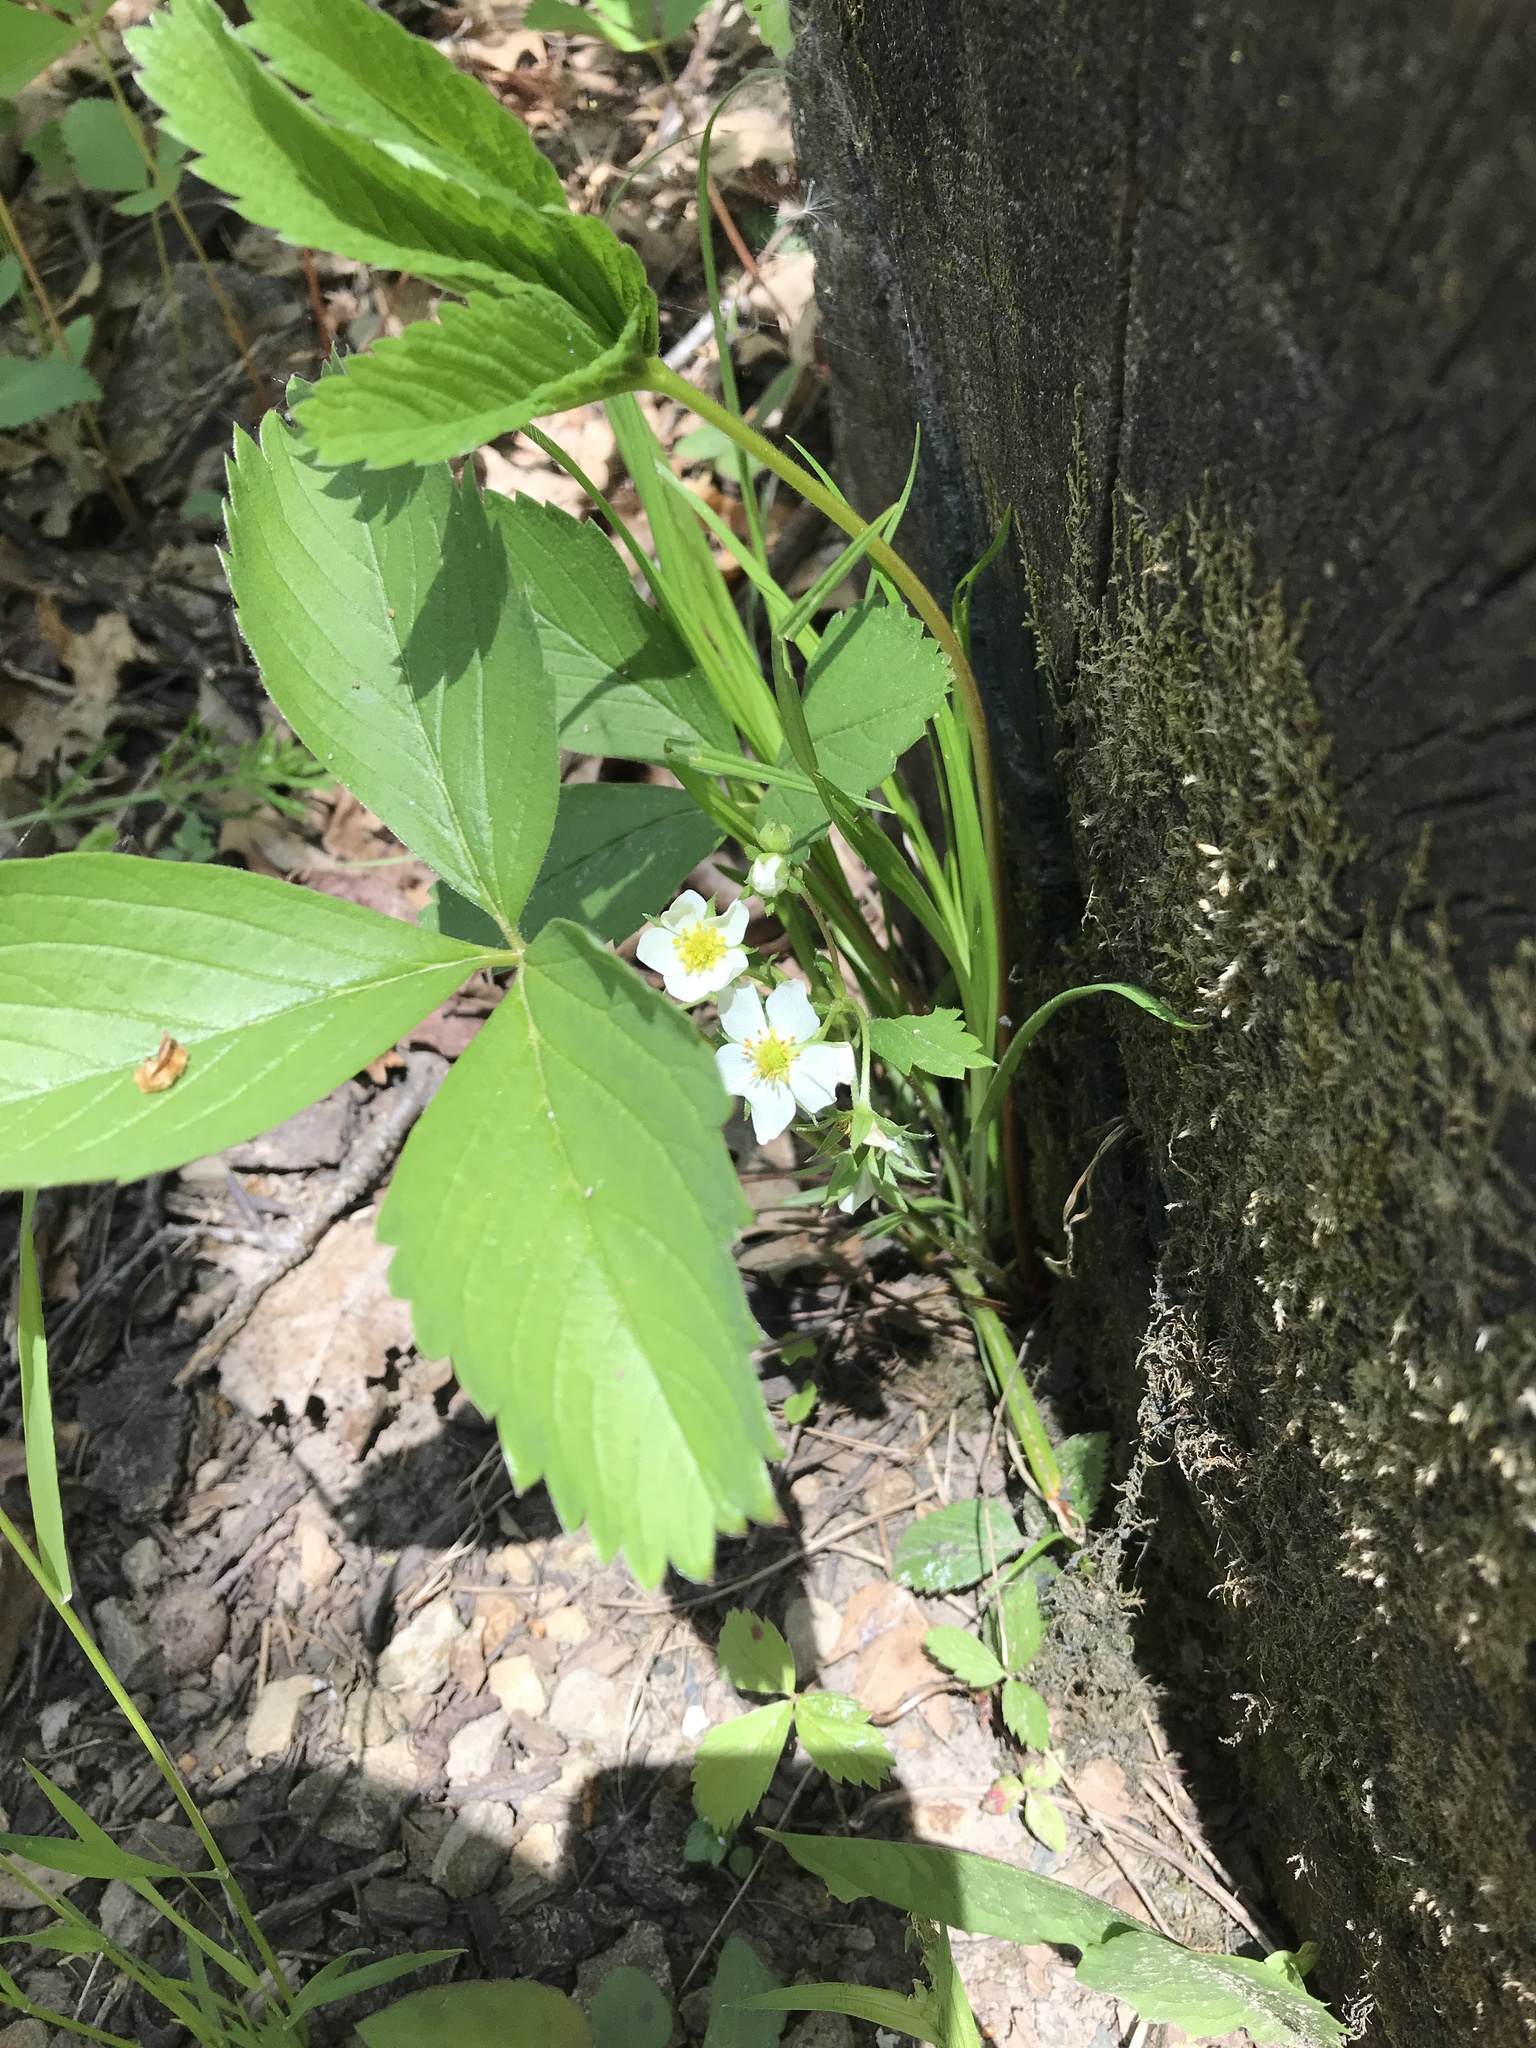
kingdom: Plantae
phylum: Tracheophyta
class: Magnoliopsida
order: Rosales
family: Rosaceae
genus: Fragaria
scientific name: Fragaria virginiana
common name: Thickleaved wild strawberry
